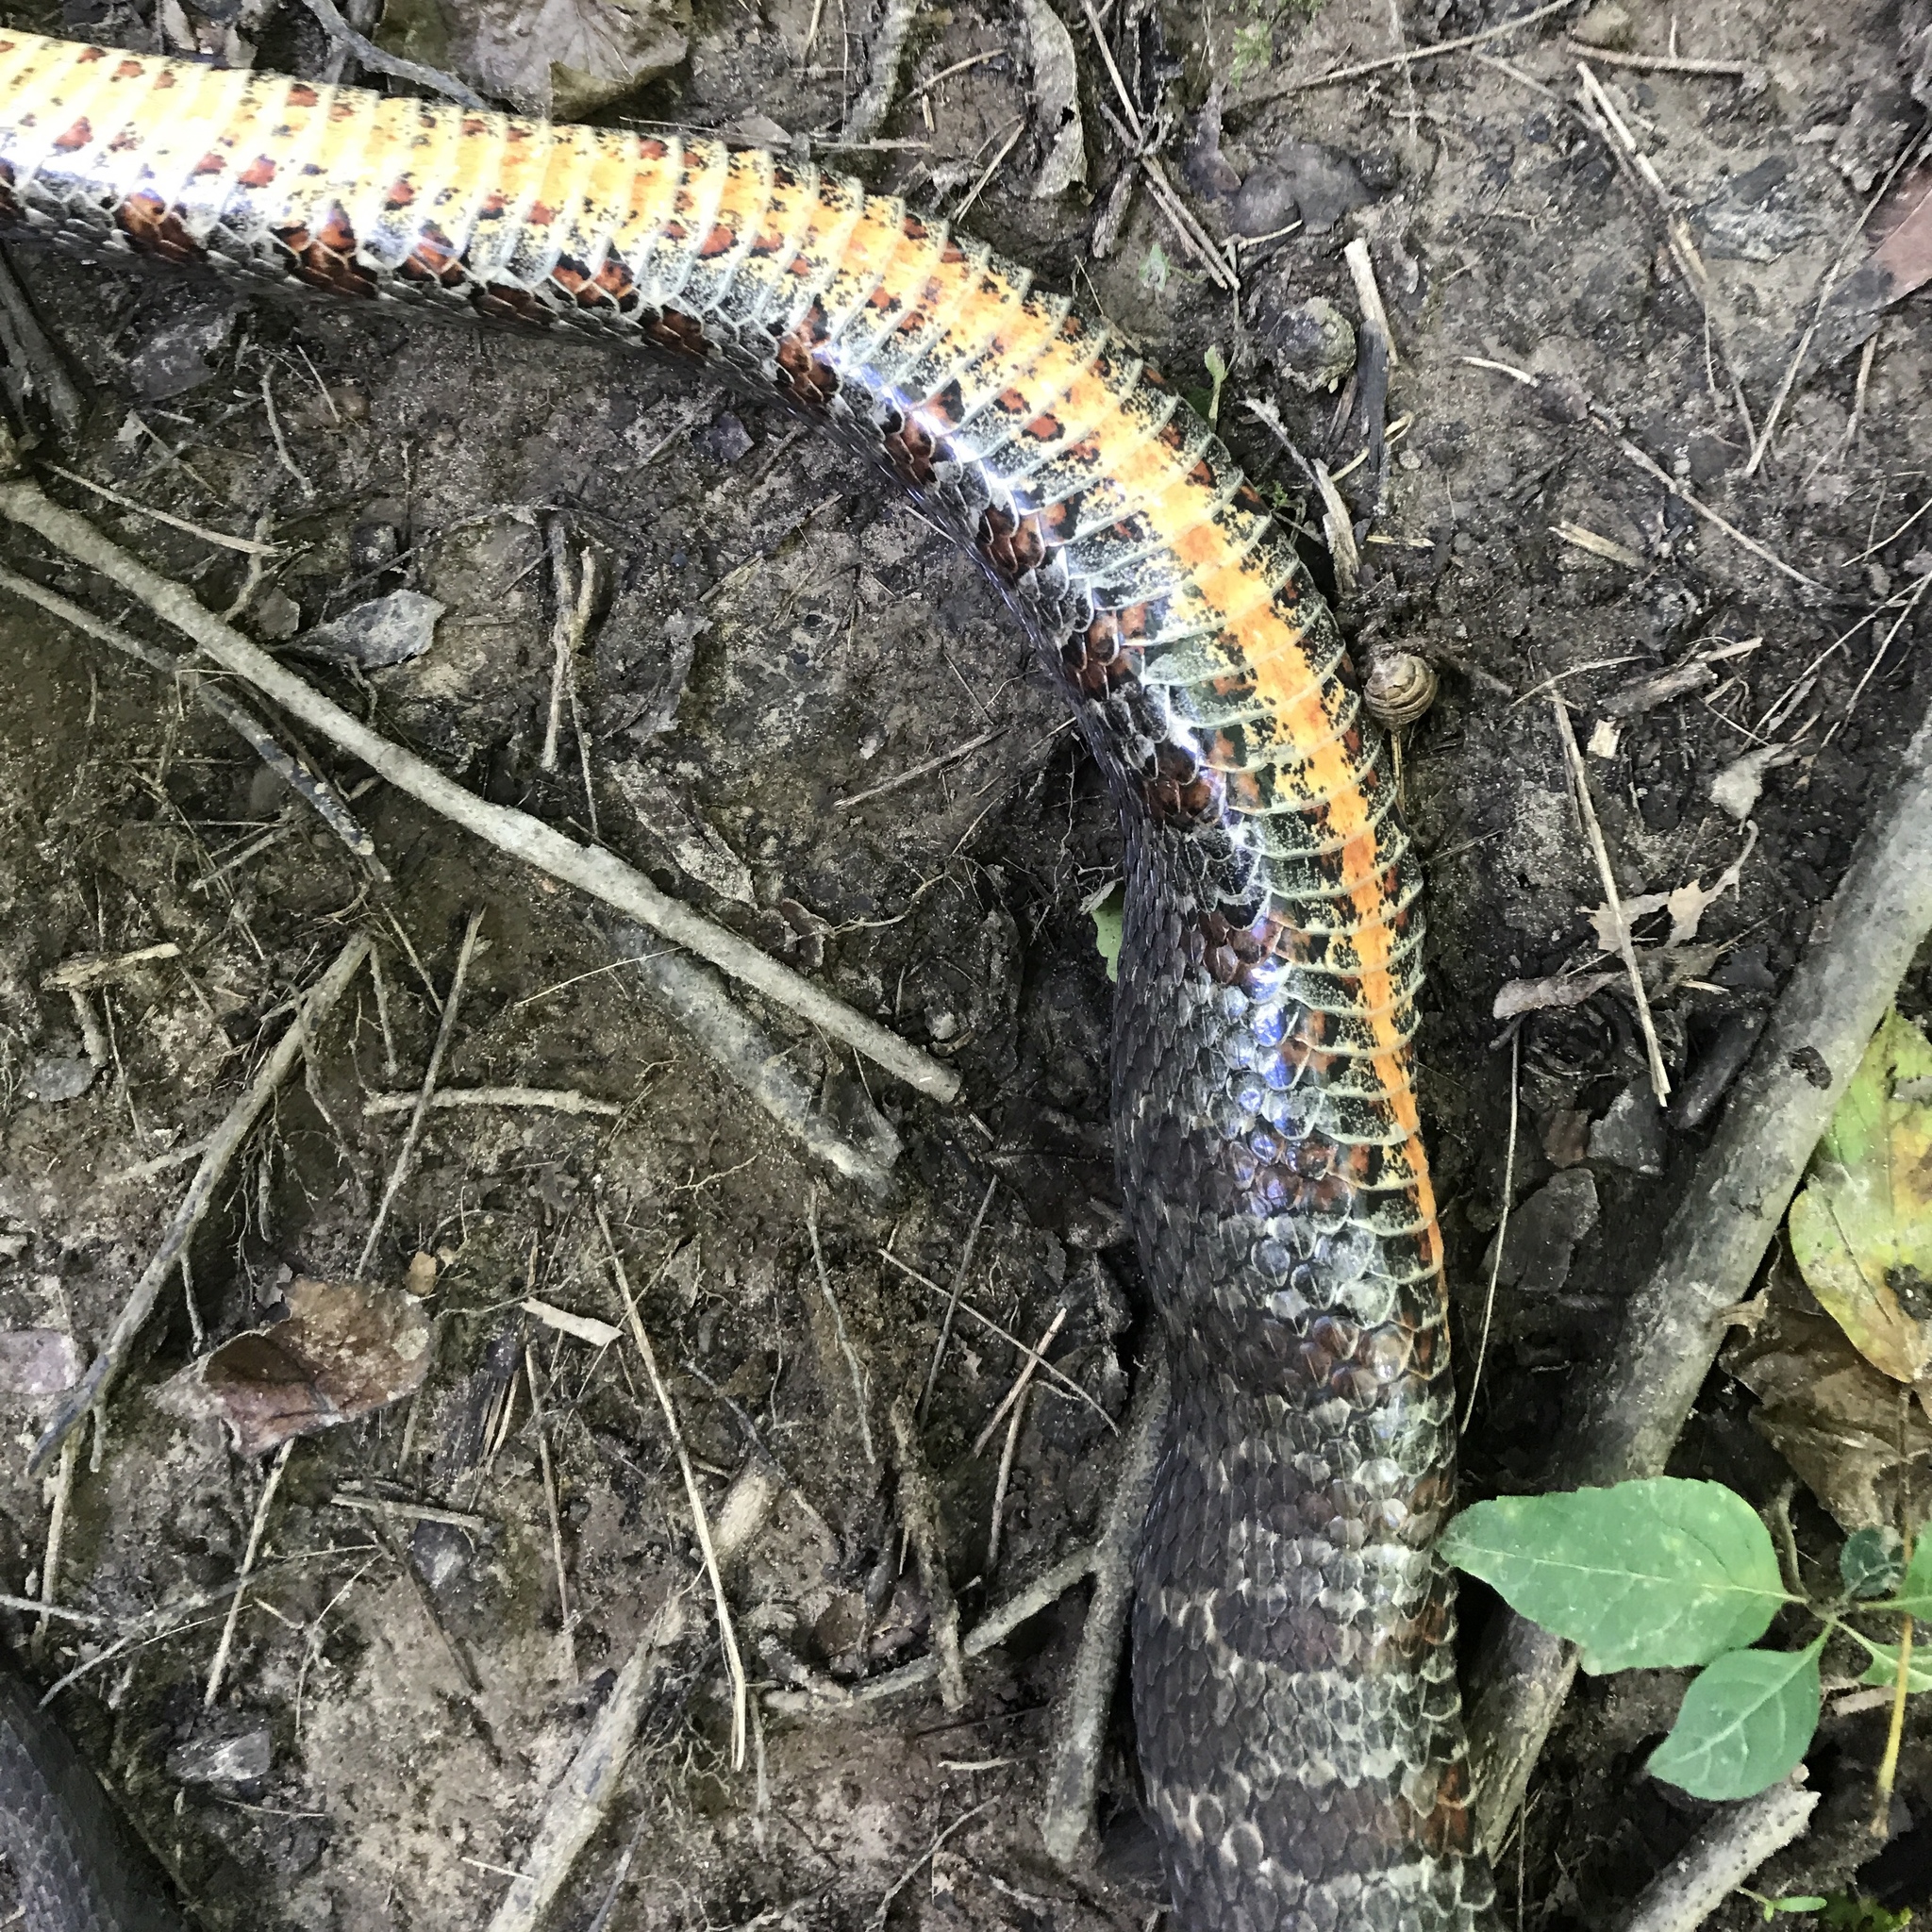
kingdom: Animalia
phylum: Chordata
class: Squamata
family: Colubridae
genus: Nerodia
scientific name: Nerodia sipedon
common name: Northern water snake
